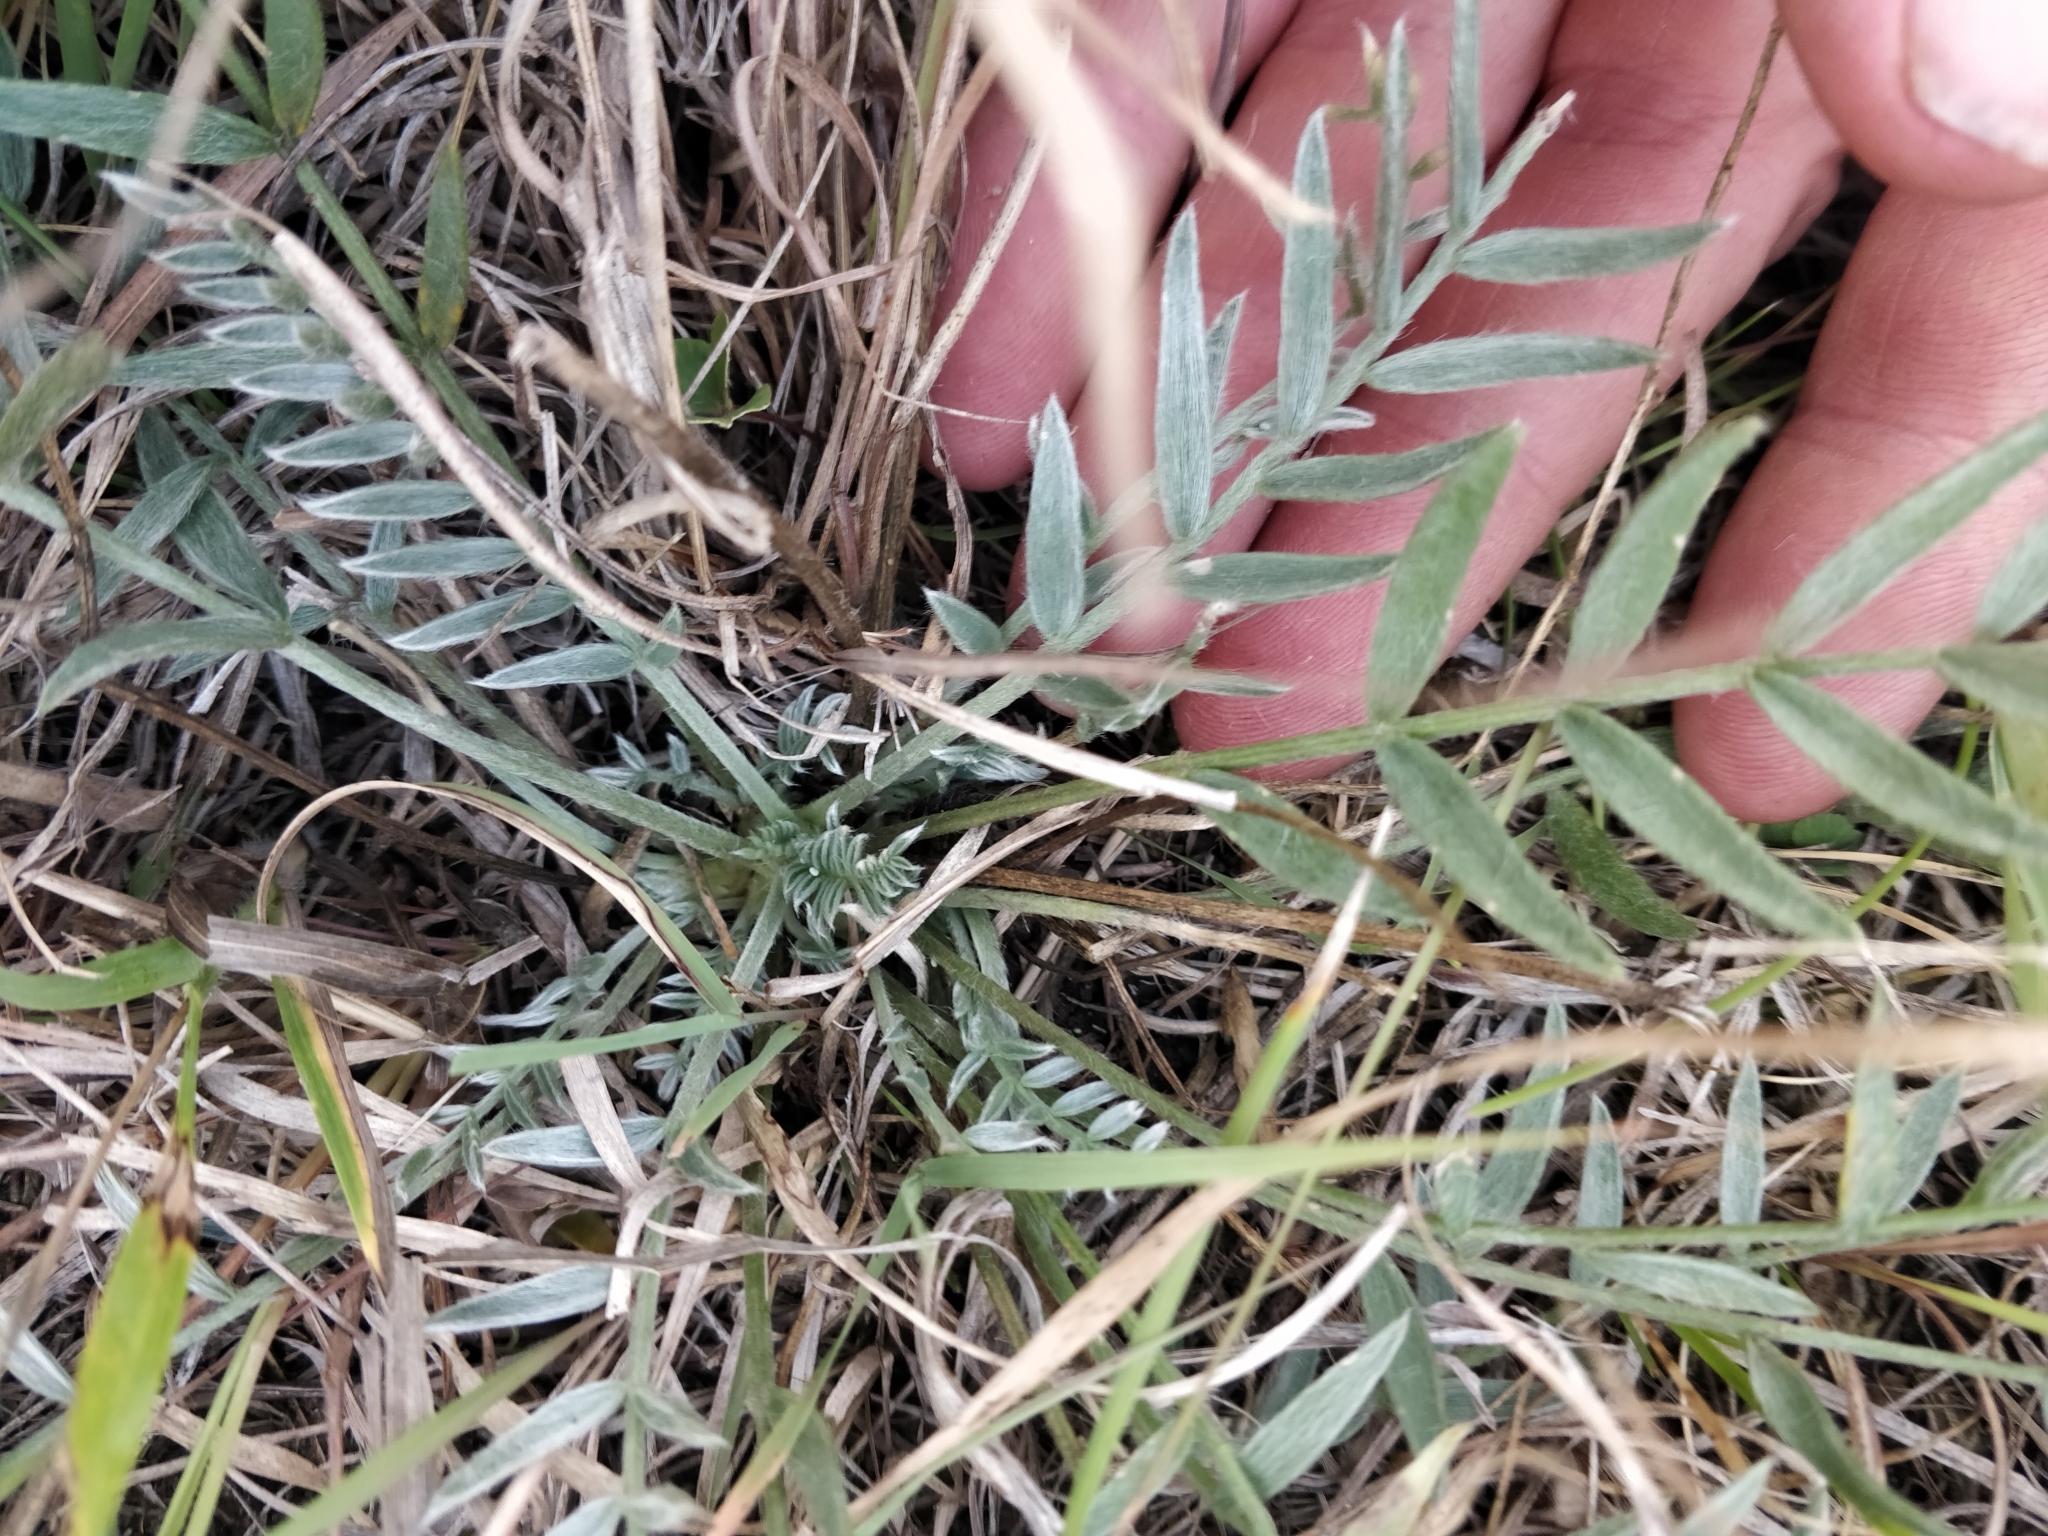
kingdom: Plantae
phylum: Tracheophyta
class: Magnoliopsida
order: Fabales
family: Fabaceae
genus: Oxytropis
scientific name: Oxytropis lambertii
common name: Purple locoweed
